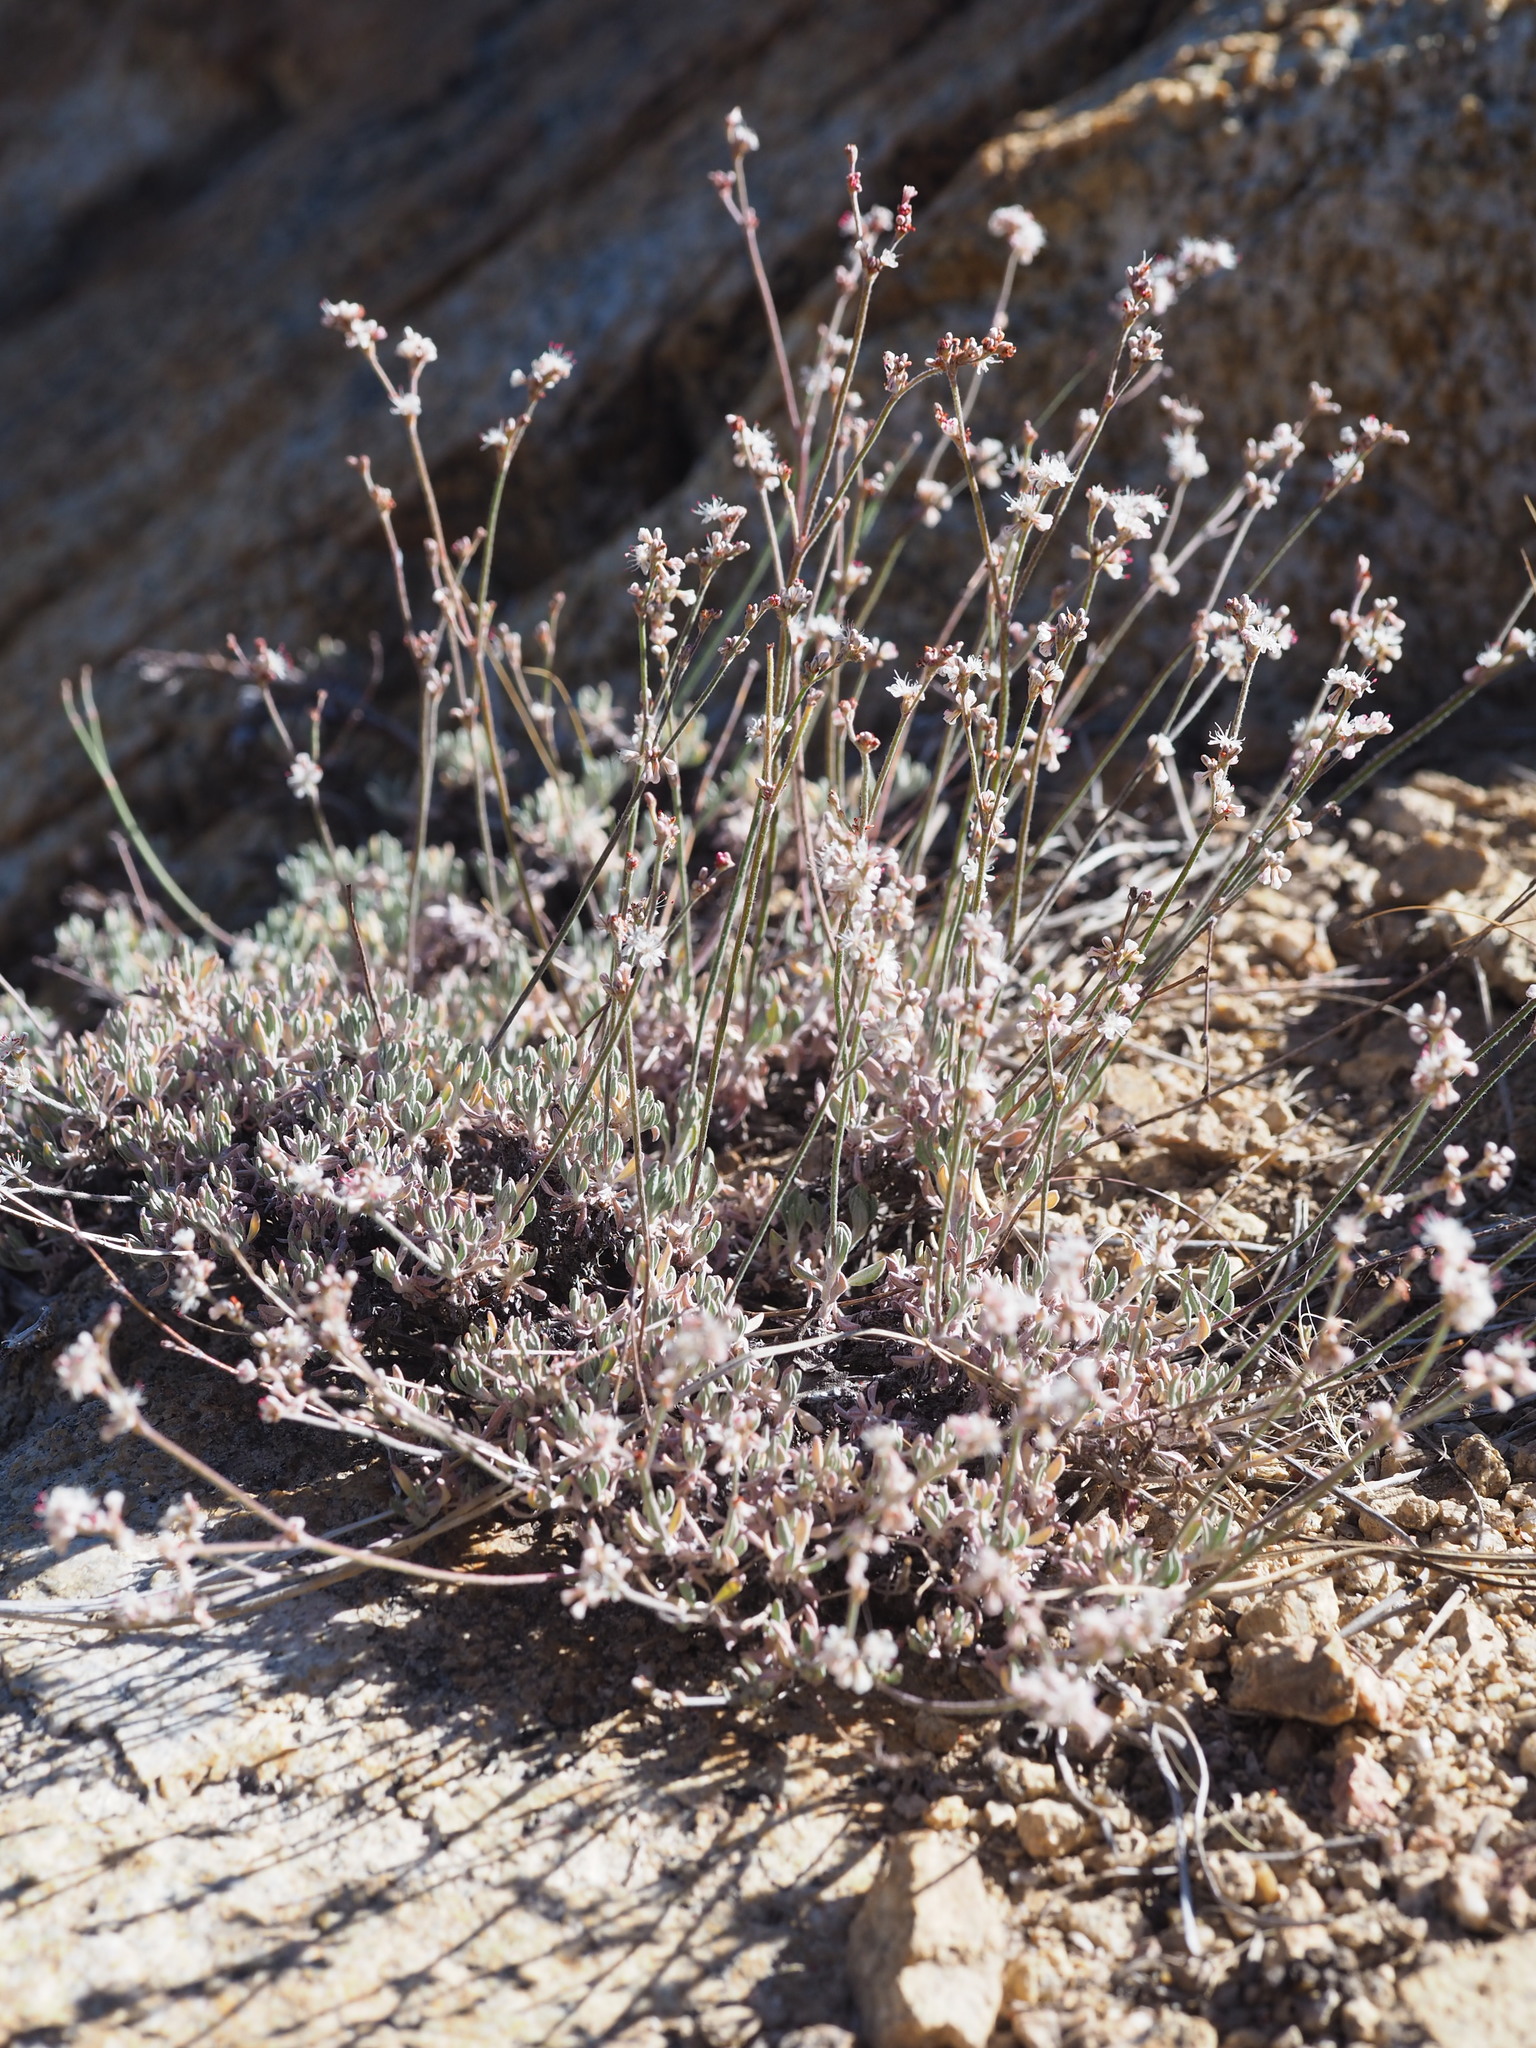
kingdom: Plantae
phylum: Tracheophyta
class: Magnoliopsida
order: Caryophyllales
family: Polygonaceae
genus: Eriogonum
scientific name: Eriogonum wrightii
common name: Bastard-sage
